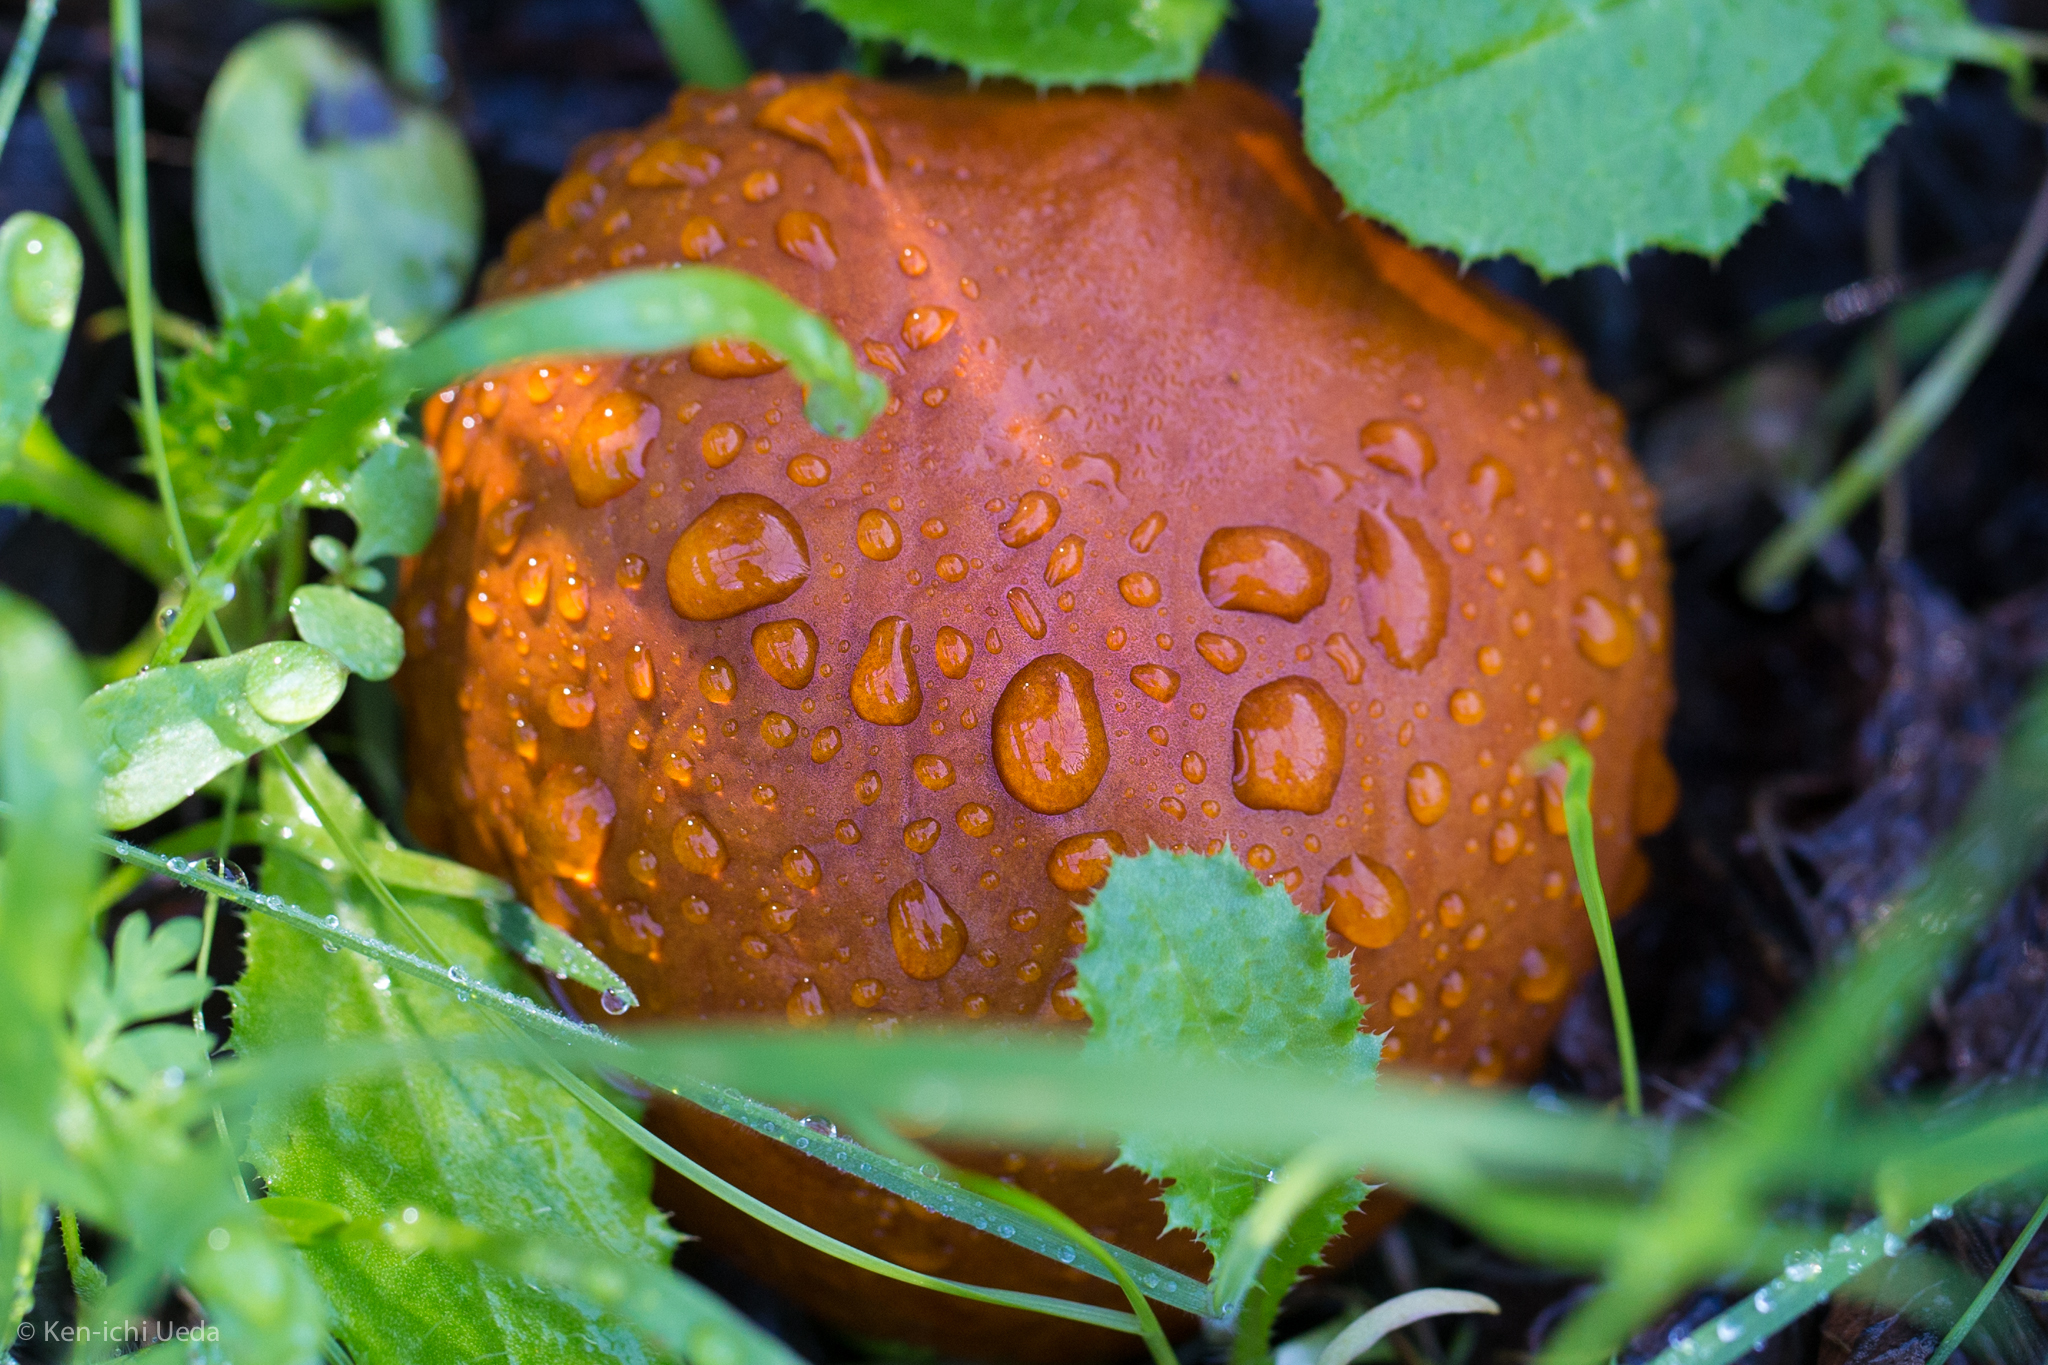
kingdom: Plantae
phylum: Tracheophyta
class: Magnoliopsida
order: Sapindales
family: Sapindaceae
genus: Aesculus
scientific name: Aesculus californica
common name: California buckeye
